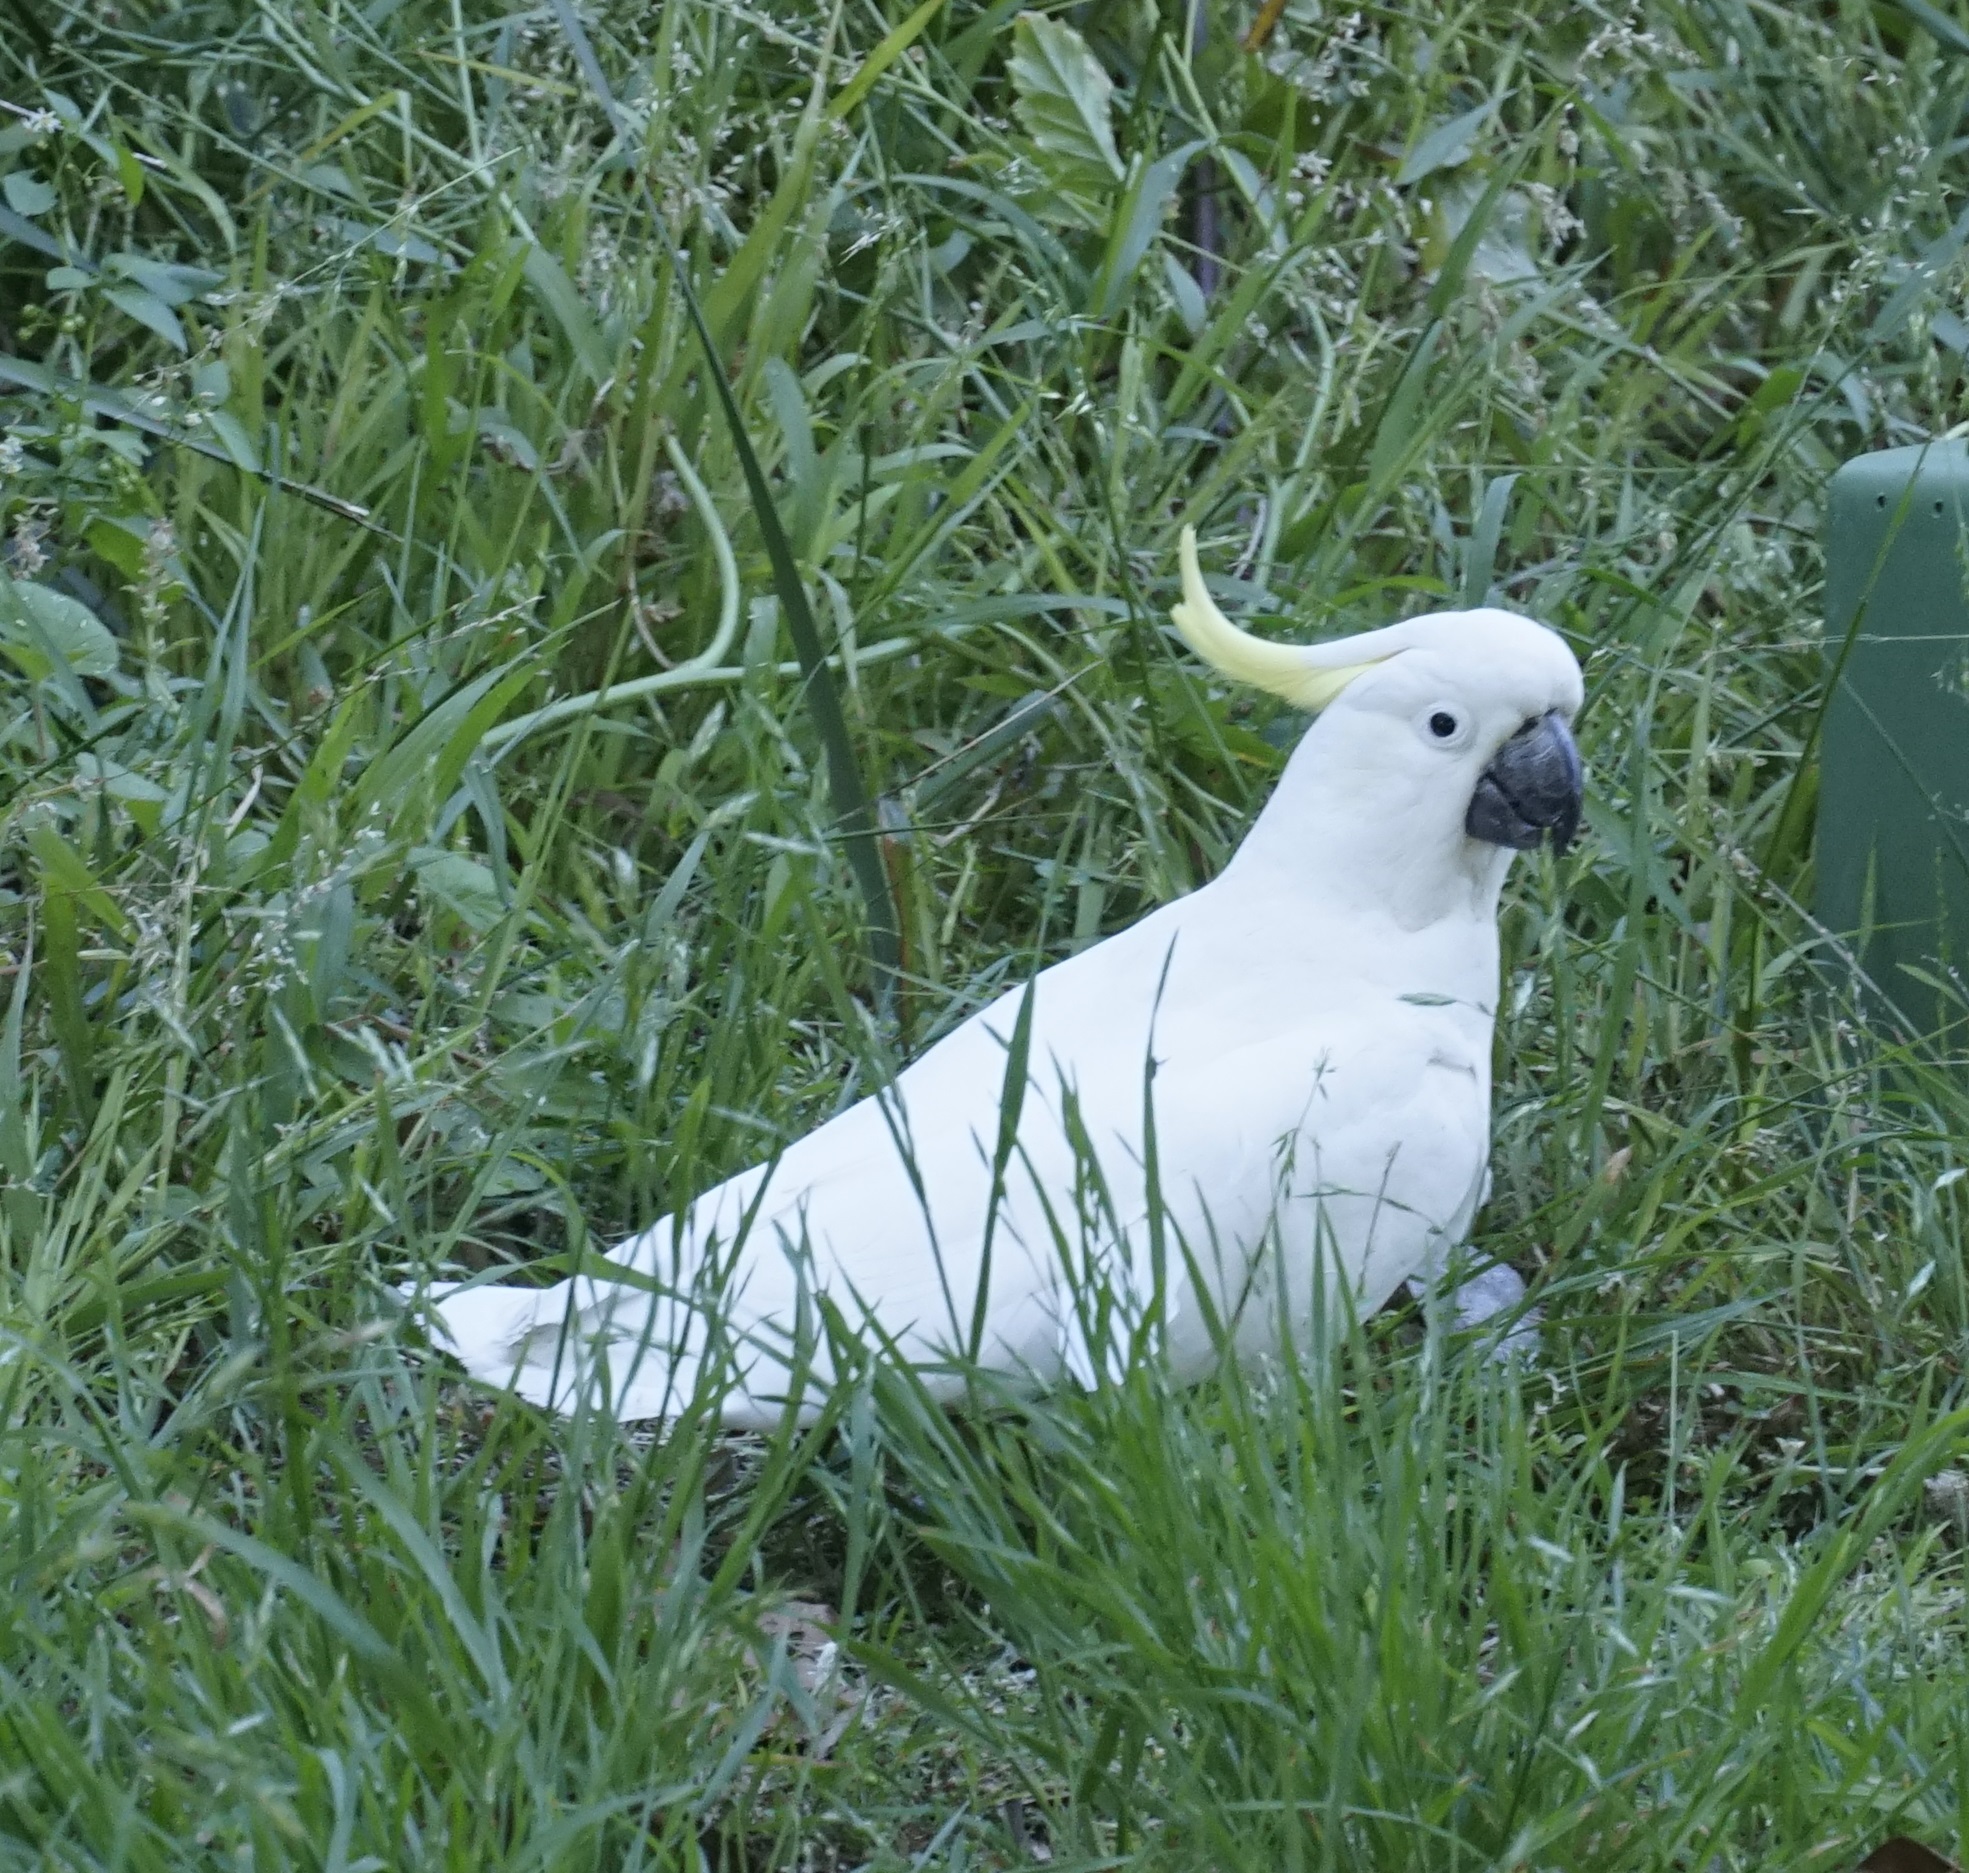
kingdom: Animalia
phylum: Chordata
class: Aves
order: Psittaciformes
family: Psittacidae
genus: Cacatua
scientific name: Cacatua galerita
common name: Sulphur-crested cockatoo
